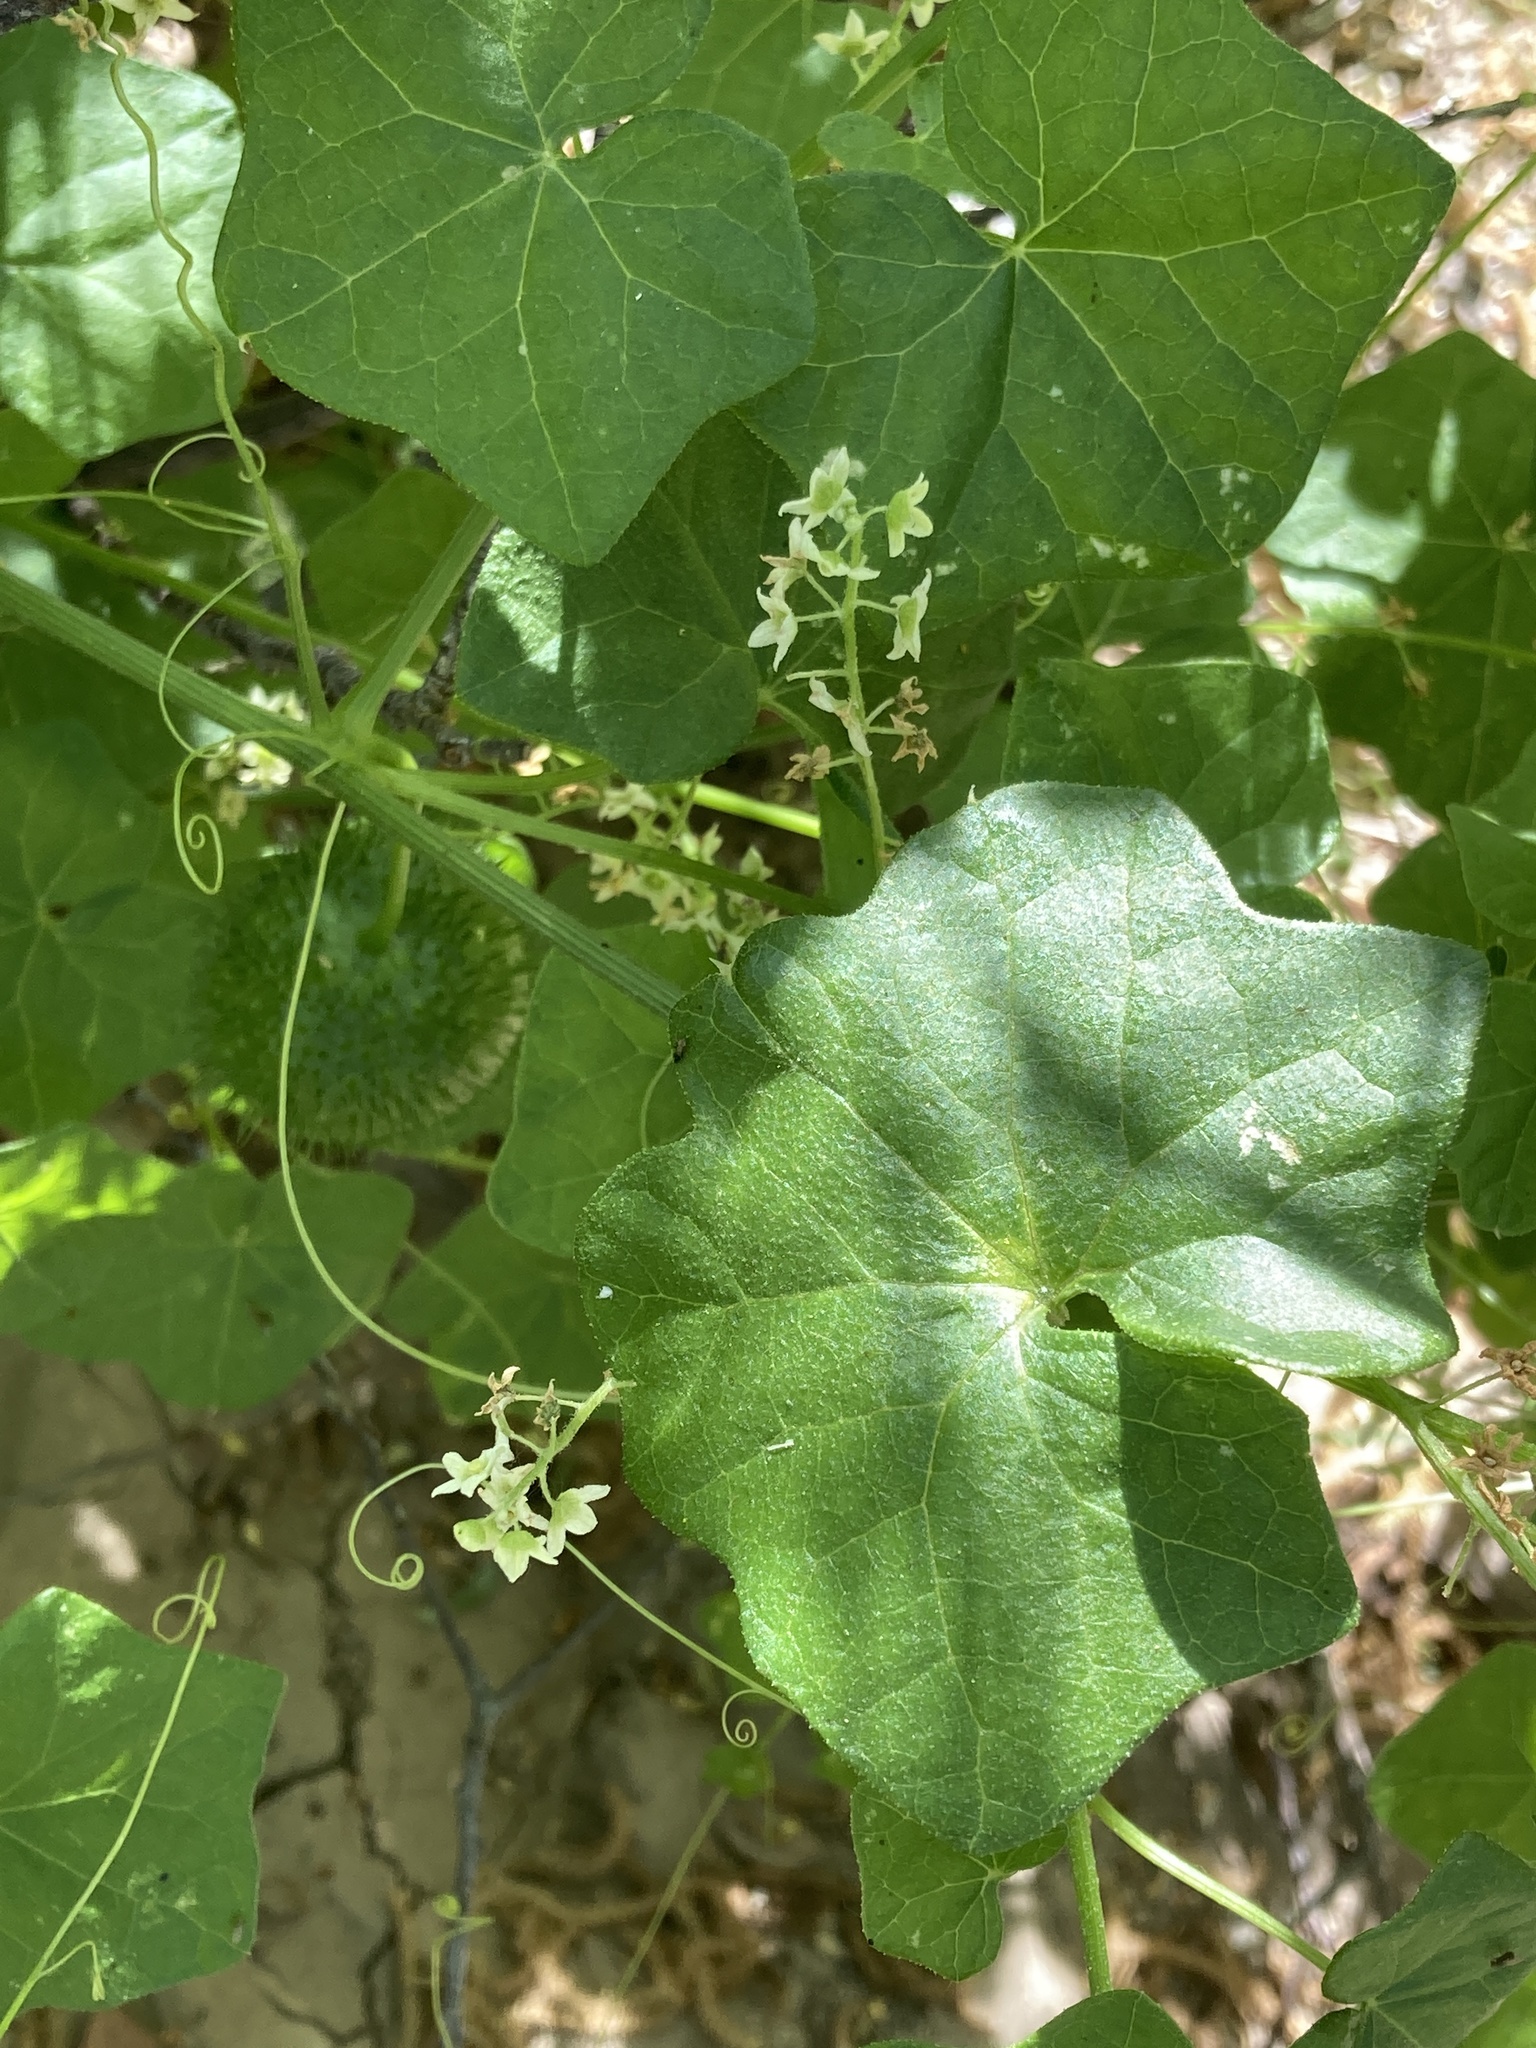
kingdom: Plantae
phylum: Tracheophyta
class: Magnoliopsida
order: Cucurbitales
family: Cucurbitaceae
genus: Marah
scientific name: Marah fabacea
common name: California manroot
